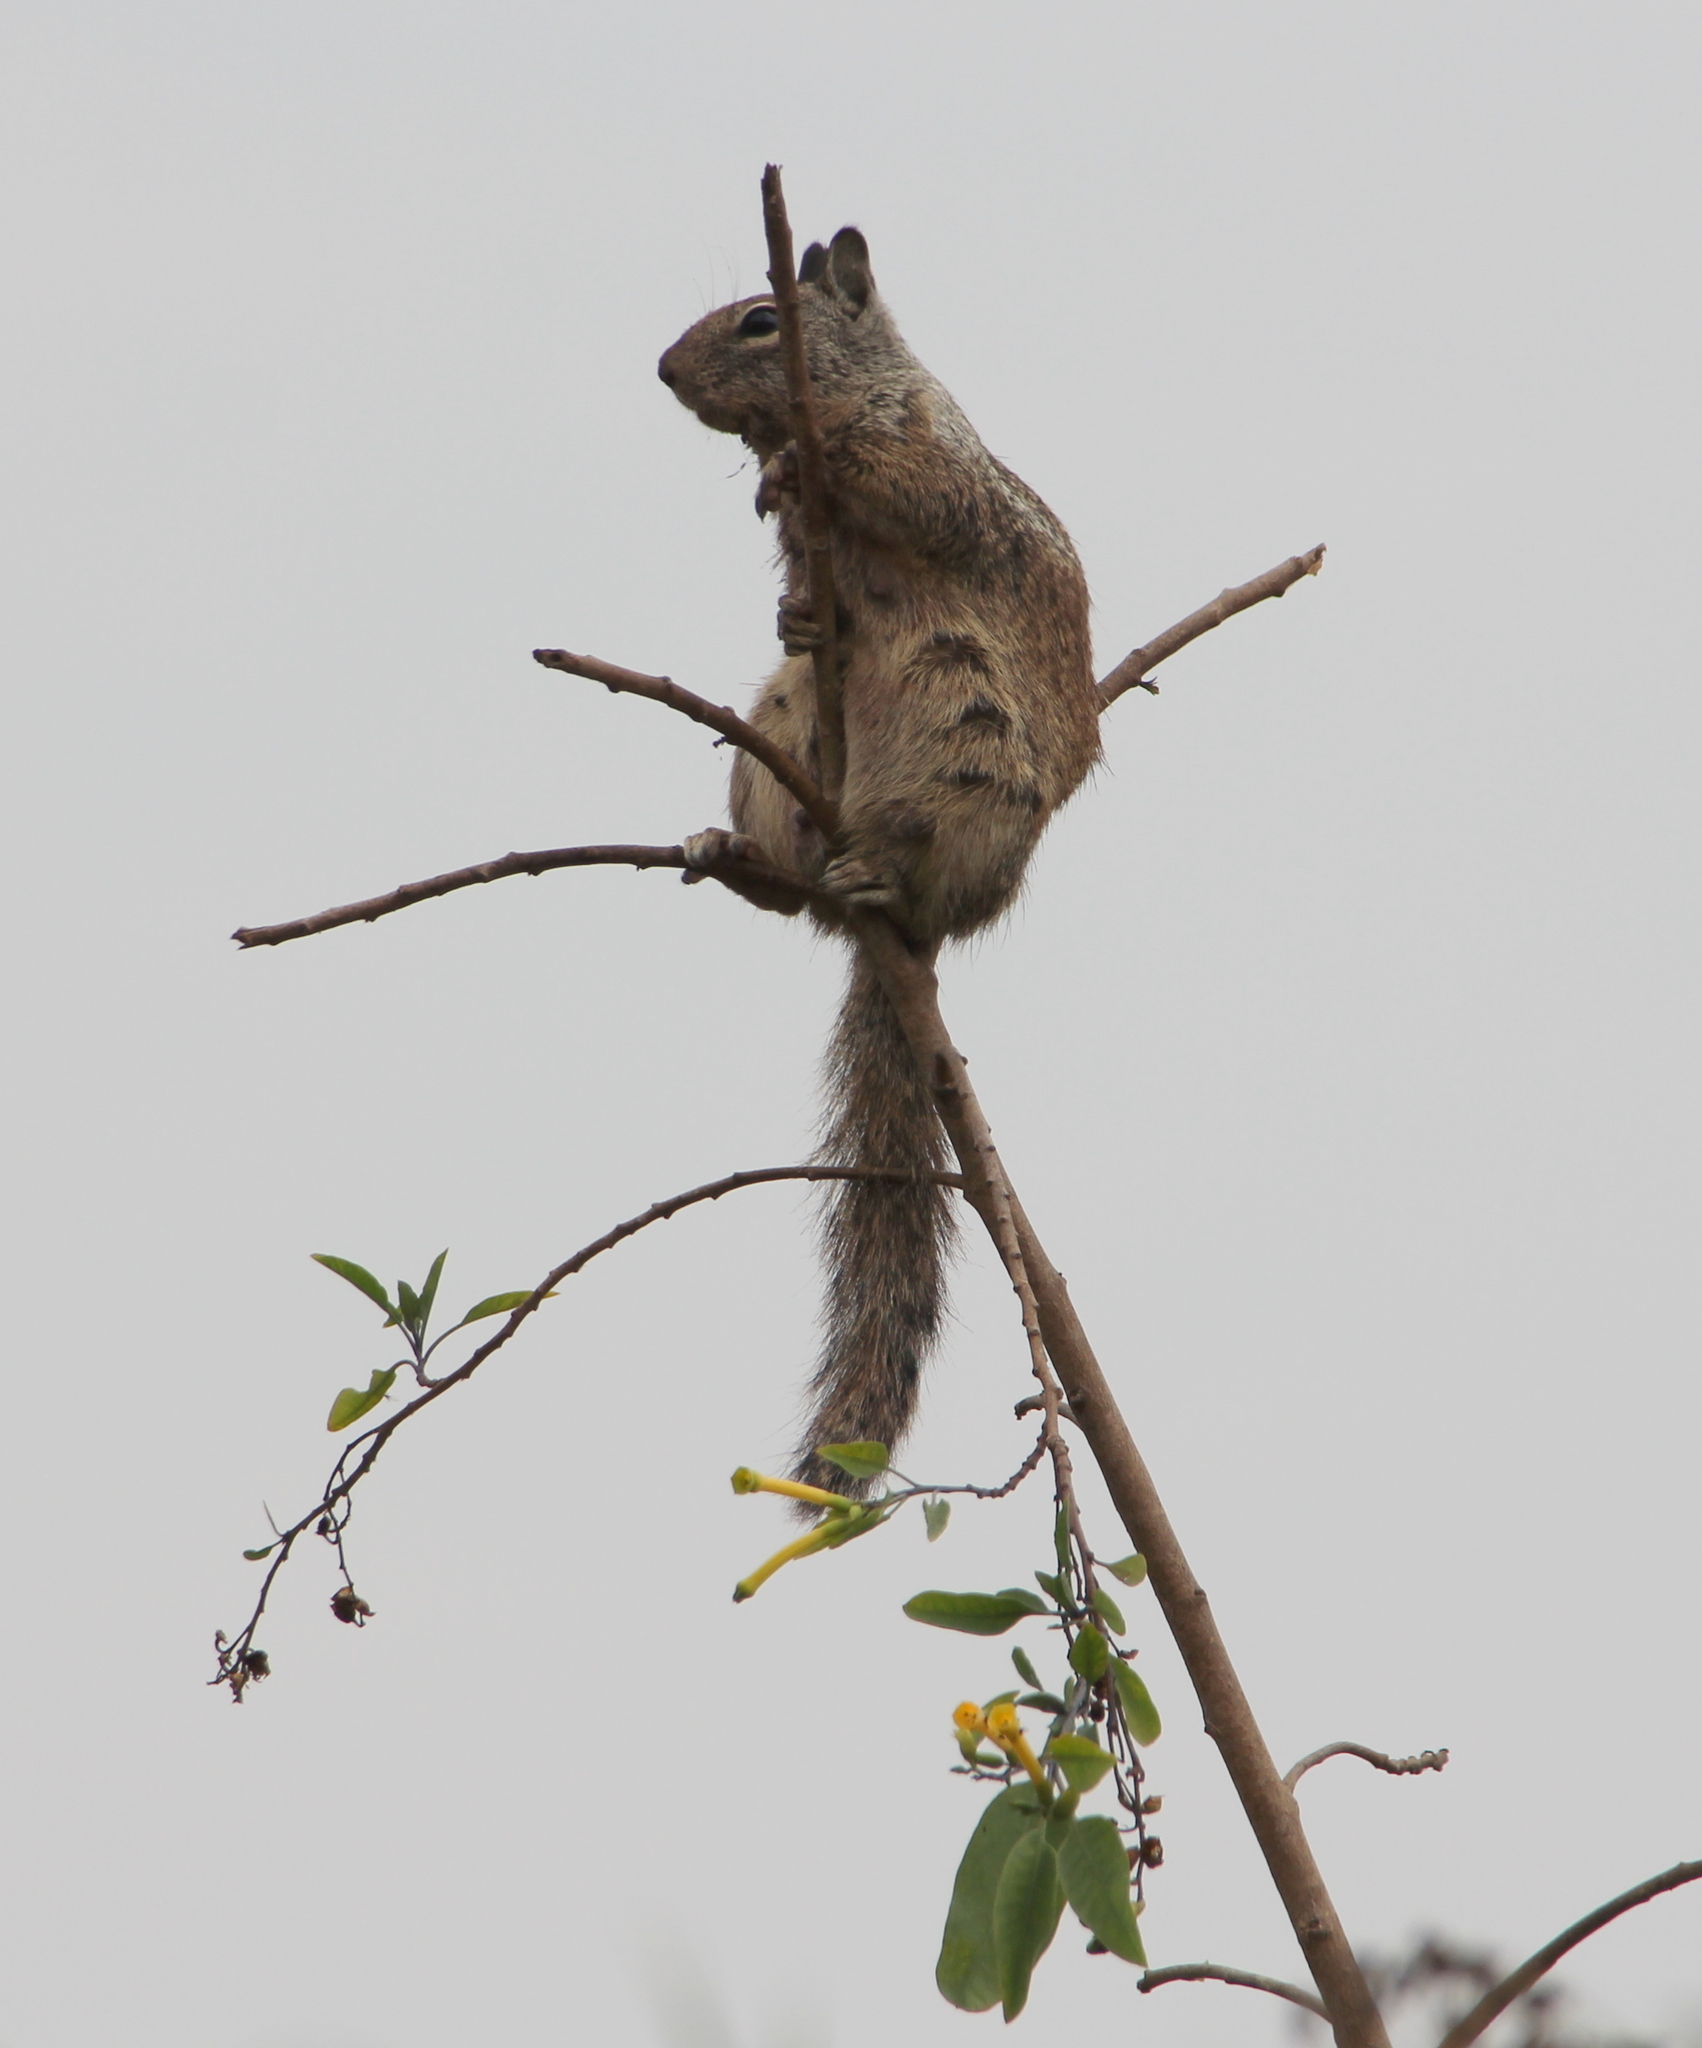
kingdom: Animalia
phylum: Chordata
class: Mammalia
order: Rodentia
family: Sciuridae
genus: Otospermophilus
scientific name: Otospermophilus beecheyi
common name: California ground squirrel
